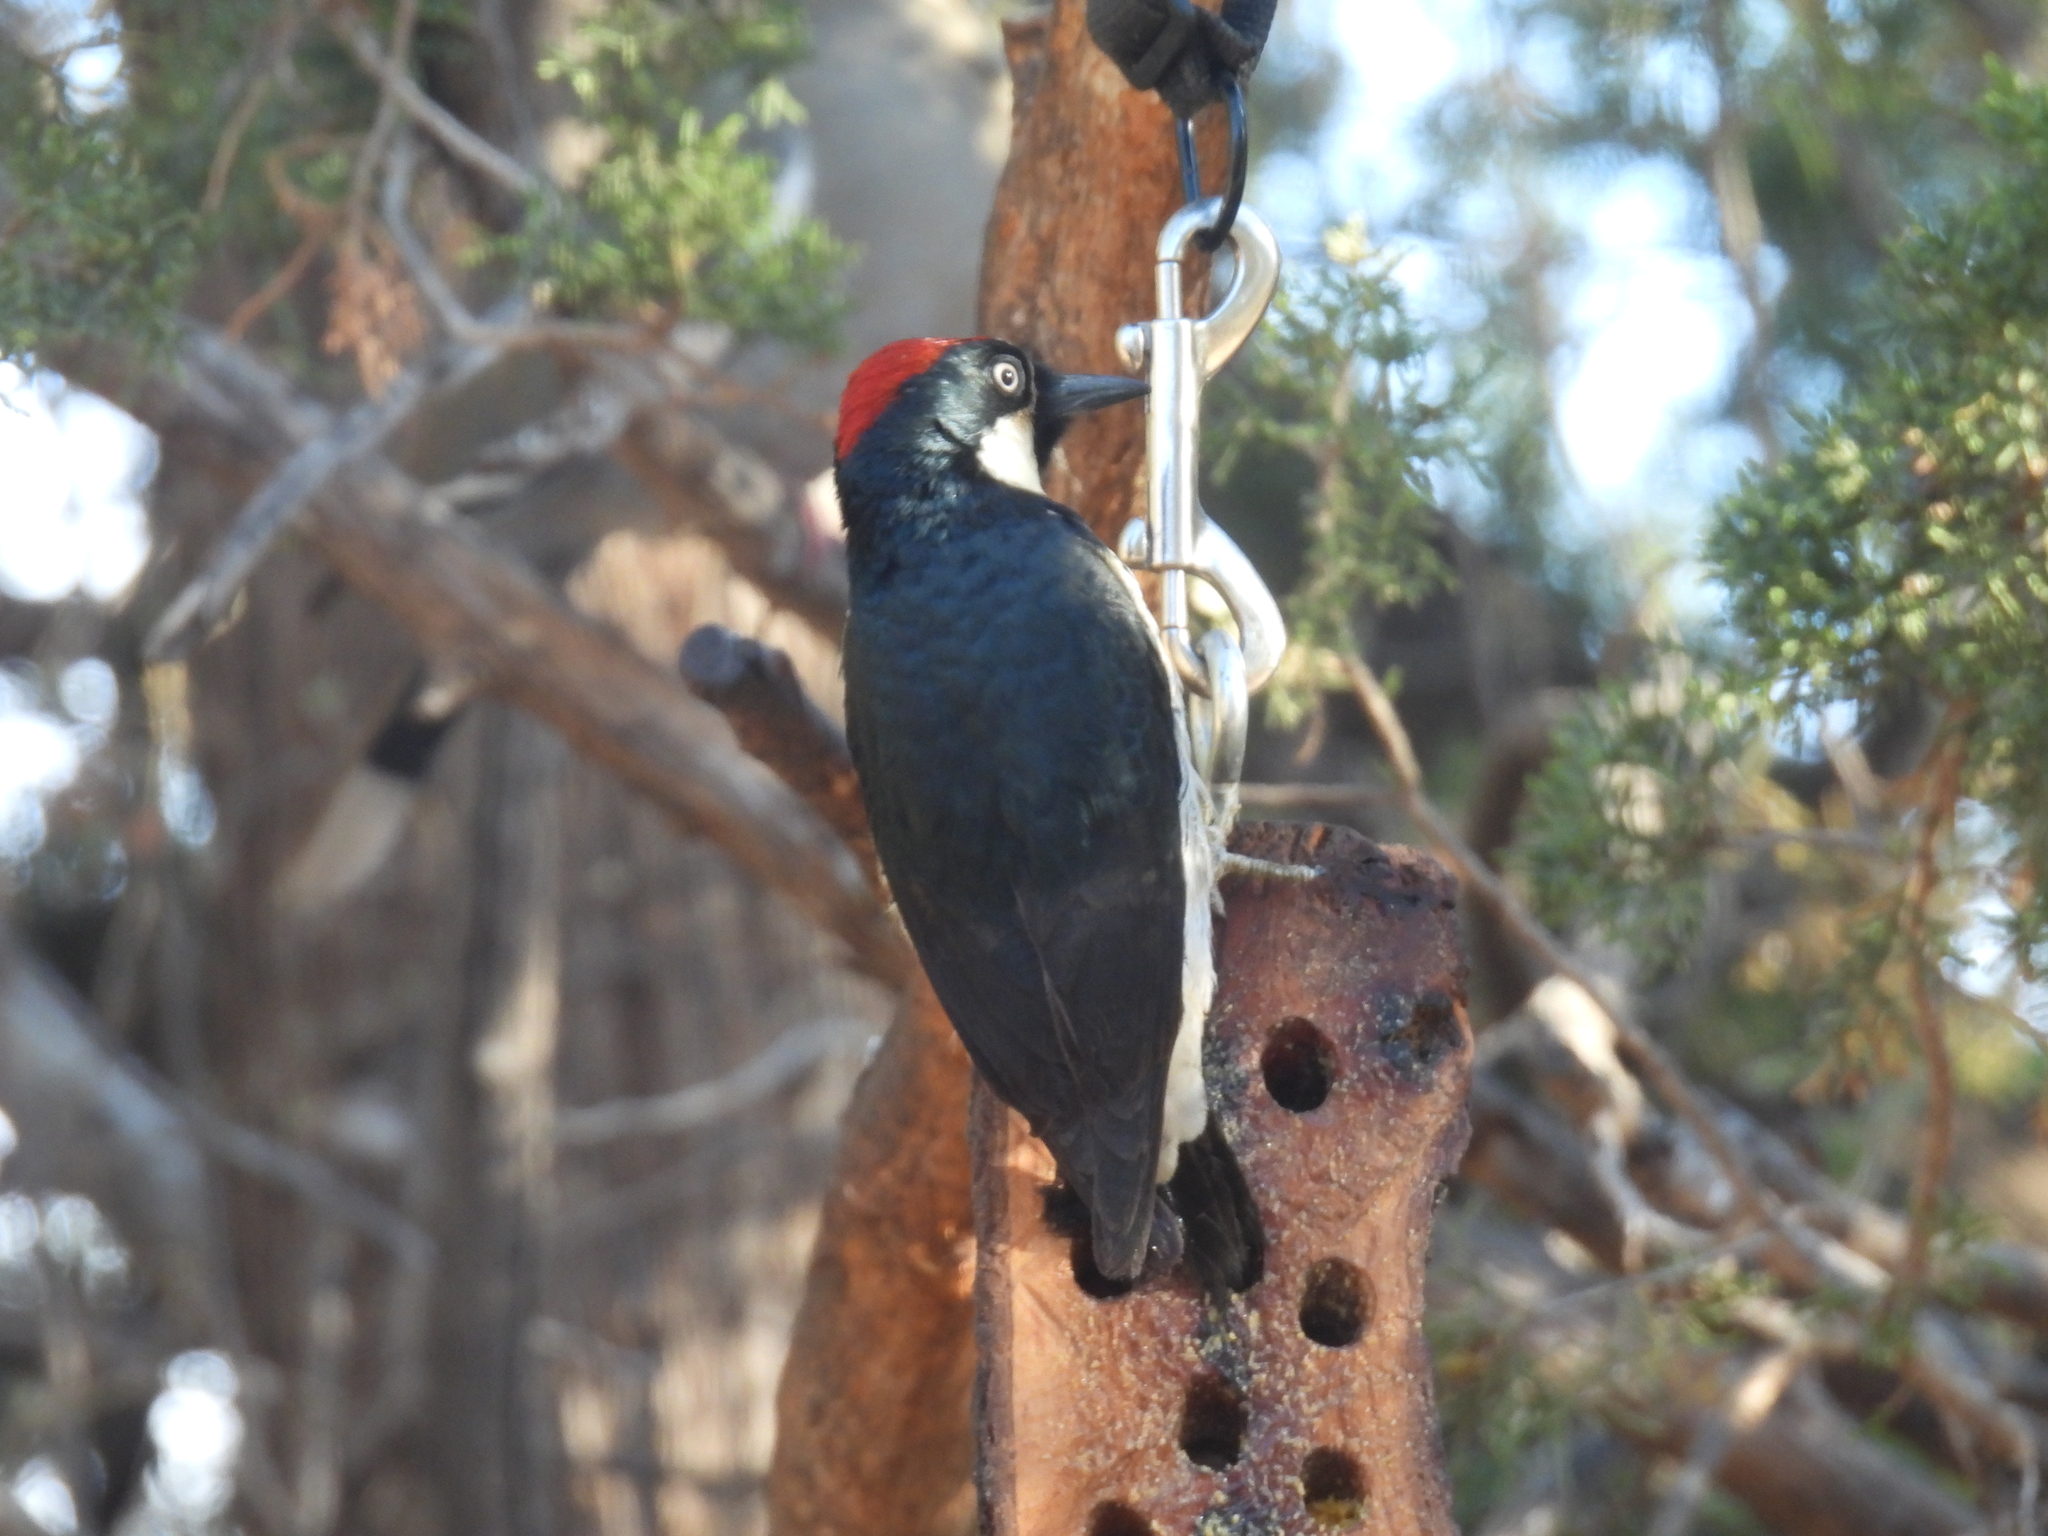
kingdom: Animalia
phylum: Chordata
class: Aves
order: Piciformes
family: Picidae
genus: Melanerpes
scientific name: Melanerpes formicivorus
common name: Acorn woodpecker
